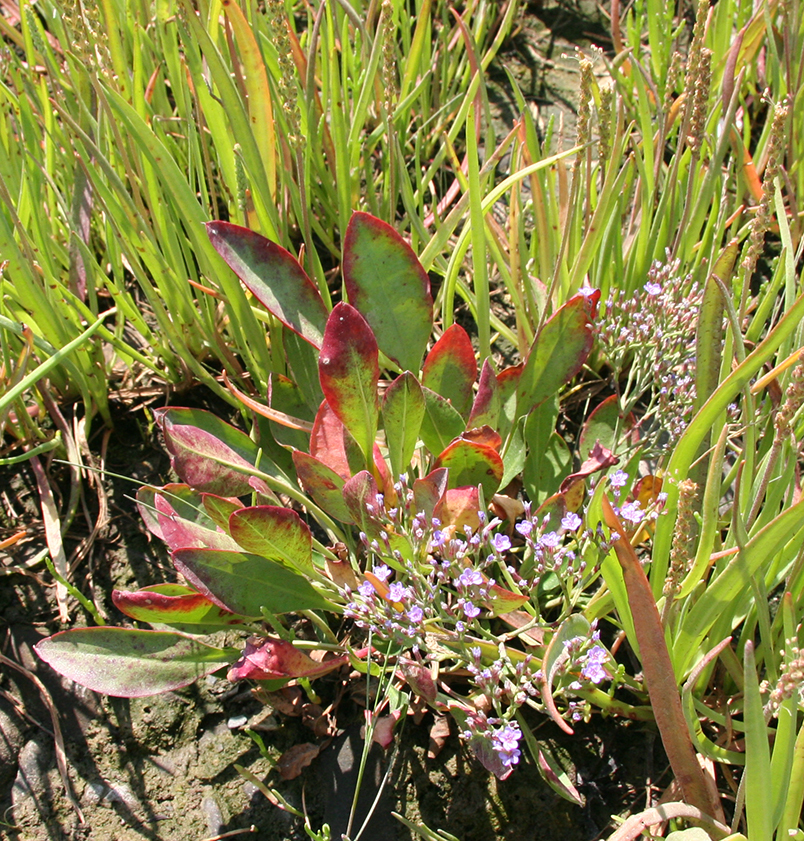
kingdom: Plantae
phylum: Tracheophyta
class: Magnoliopsida
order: Caryophyllales
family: Plumbaginaceae
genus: Limonium
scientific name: Limonium carolinianum
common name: Carolina sea lavender
